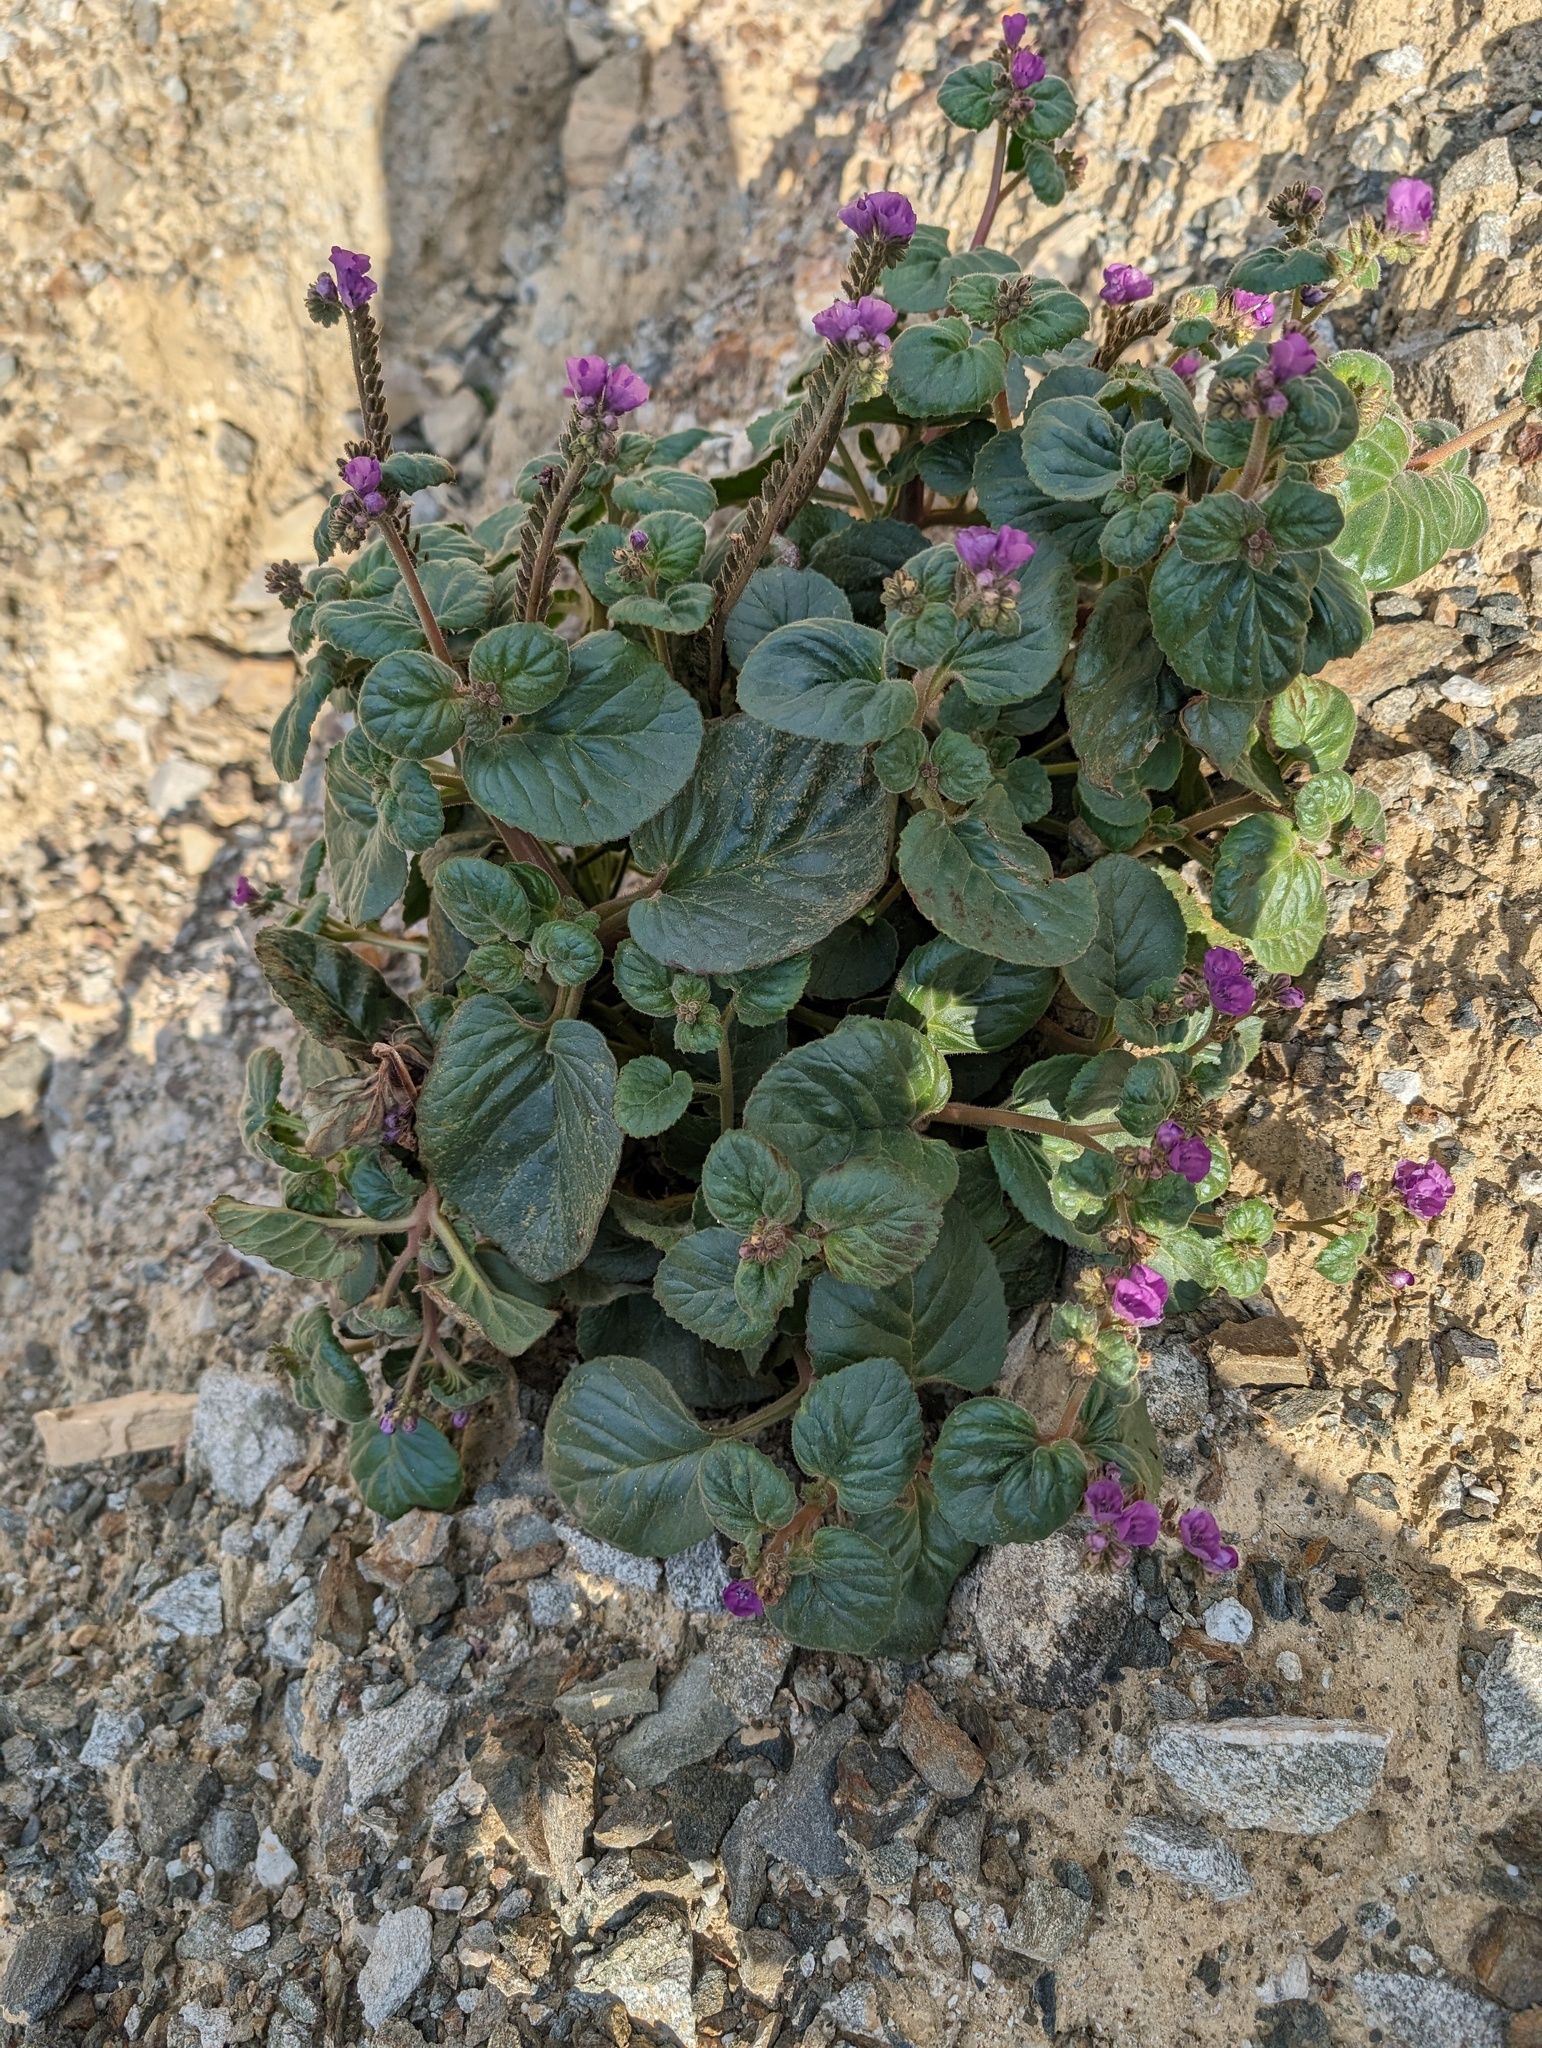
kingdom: Plantae
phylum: Tracheophyta
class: Magnoliopsida
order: Boraginales
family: Hydrophyllaceae
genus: Phacelia
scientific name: Phacelia calthifolia
